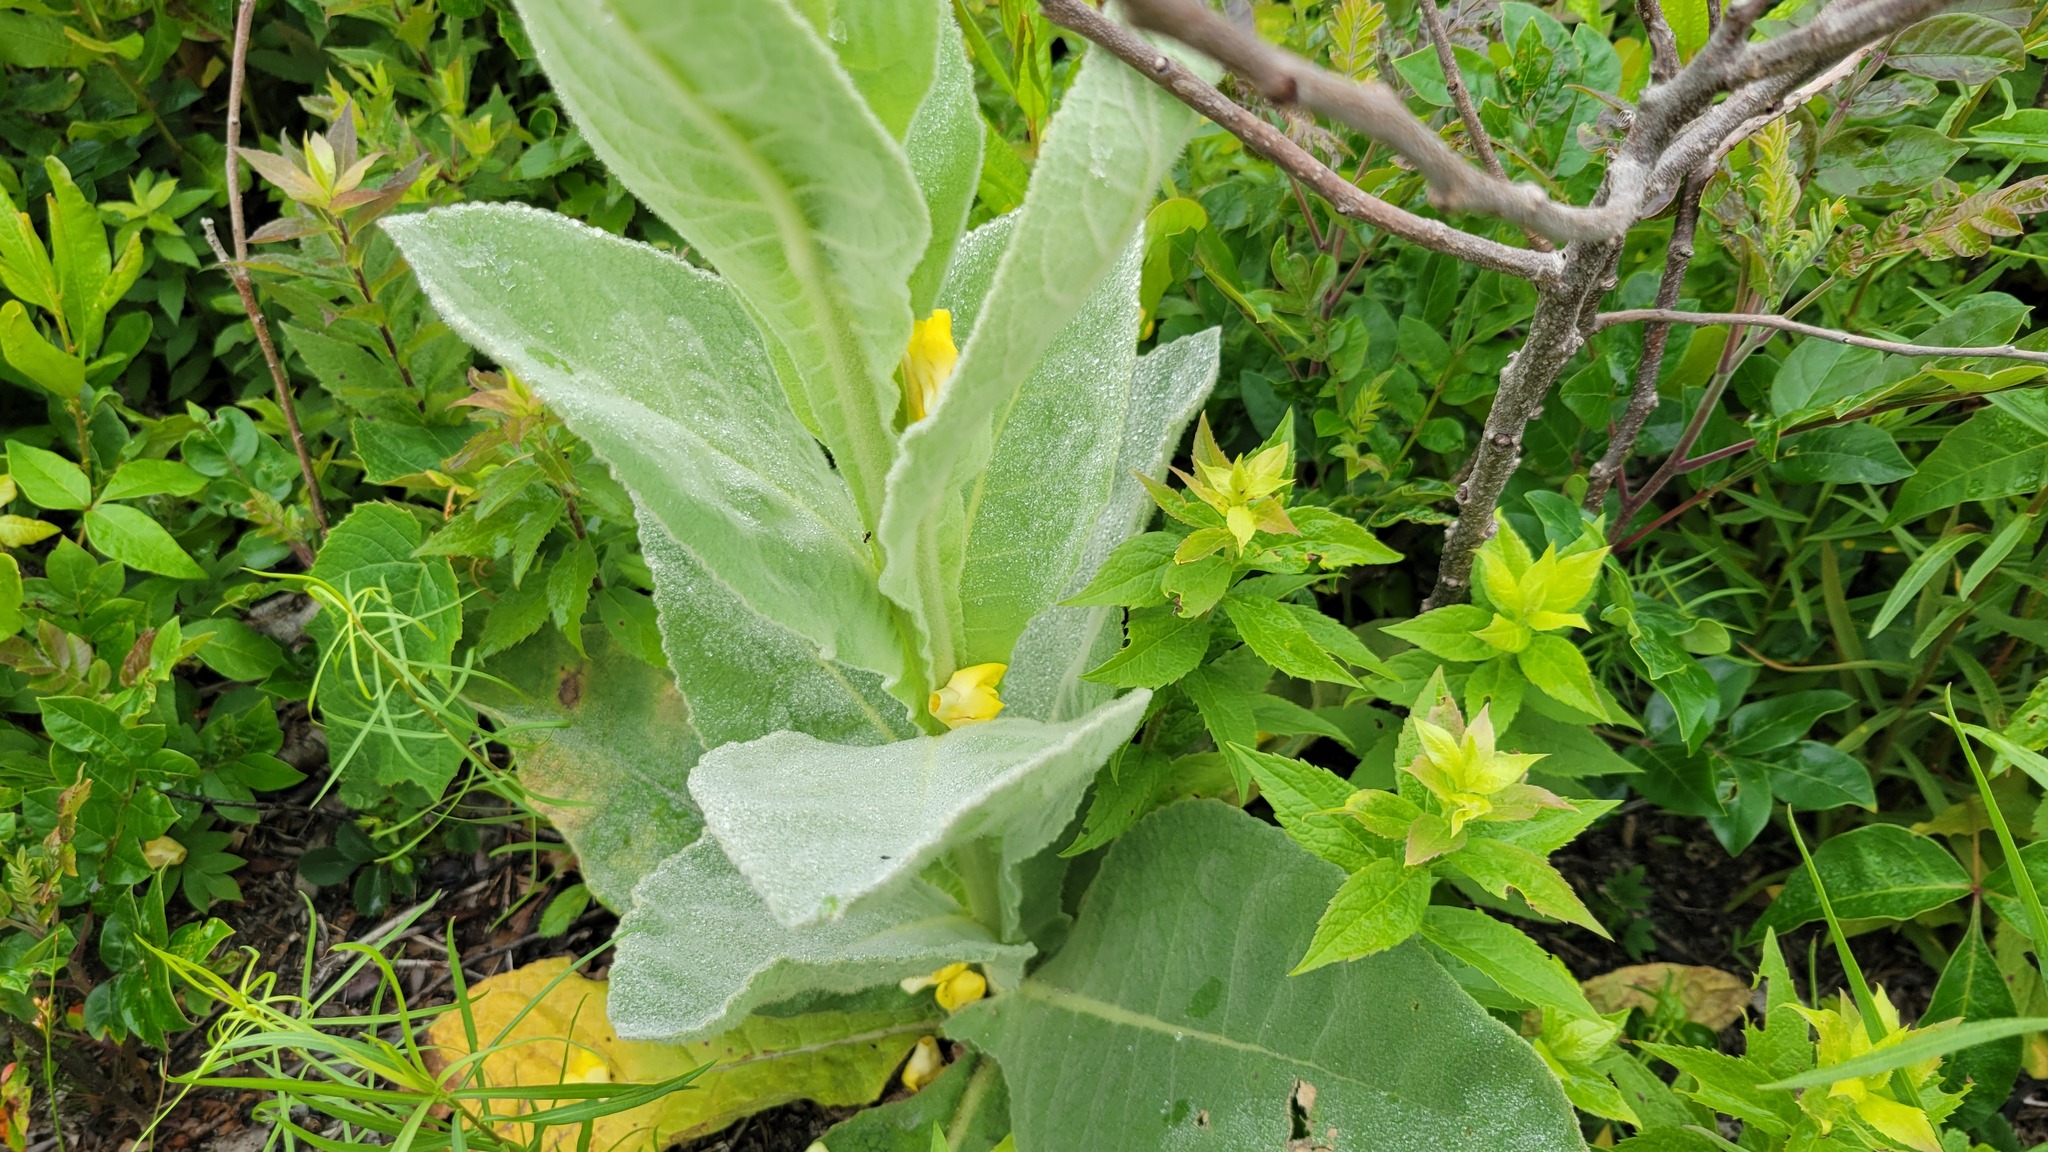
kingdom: Plantae
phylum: Tracheophyta
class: Magnoliopsida
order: Lamiales
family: Scrophulariaceae
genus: Verbascum
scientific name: Verbascum thapsus
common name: Common mullein
